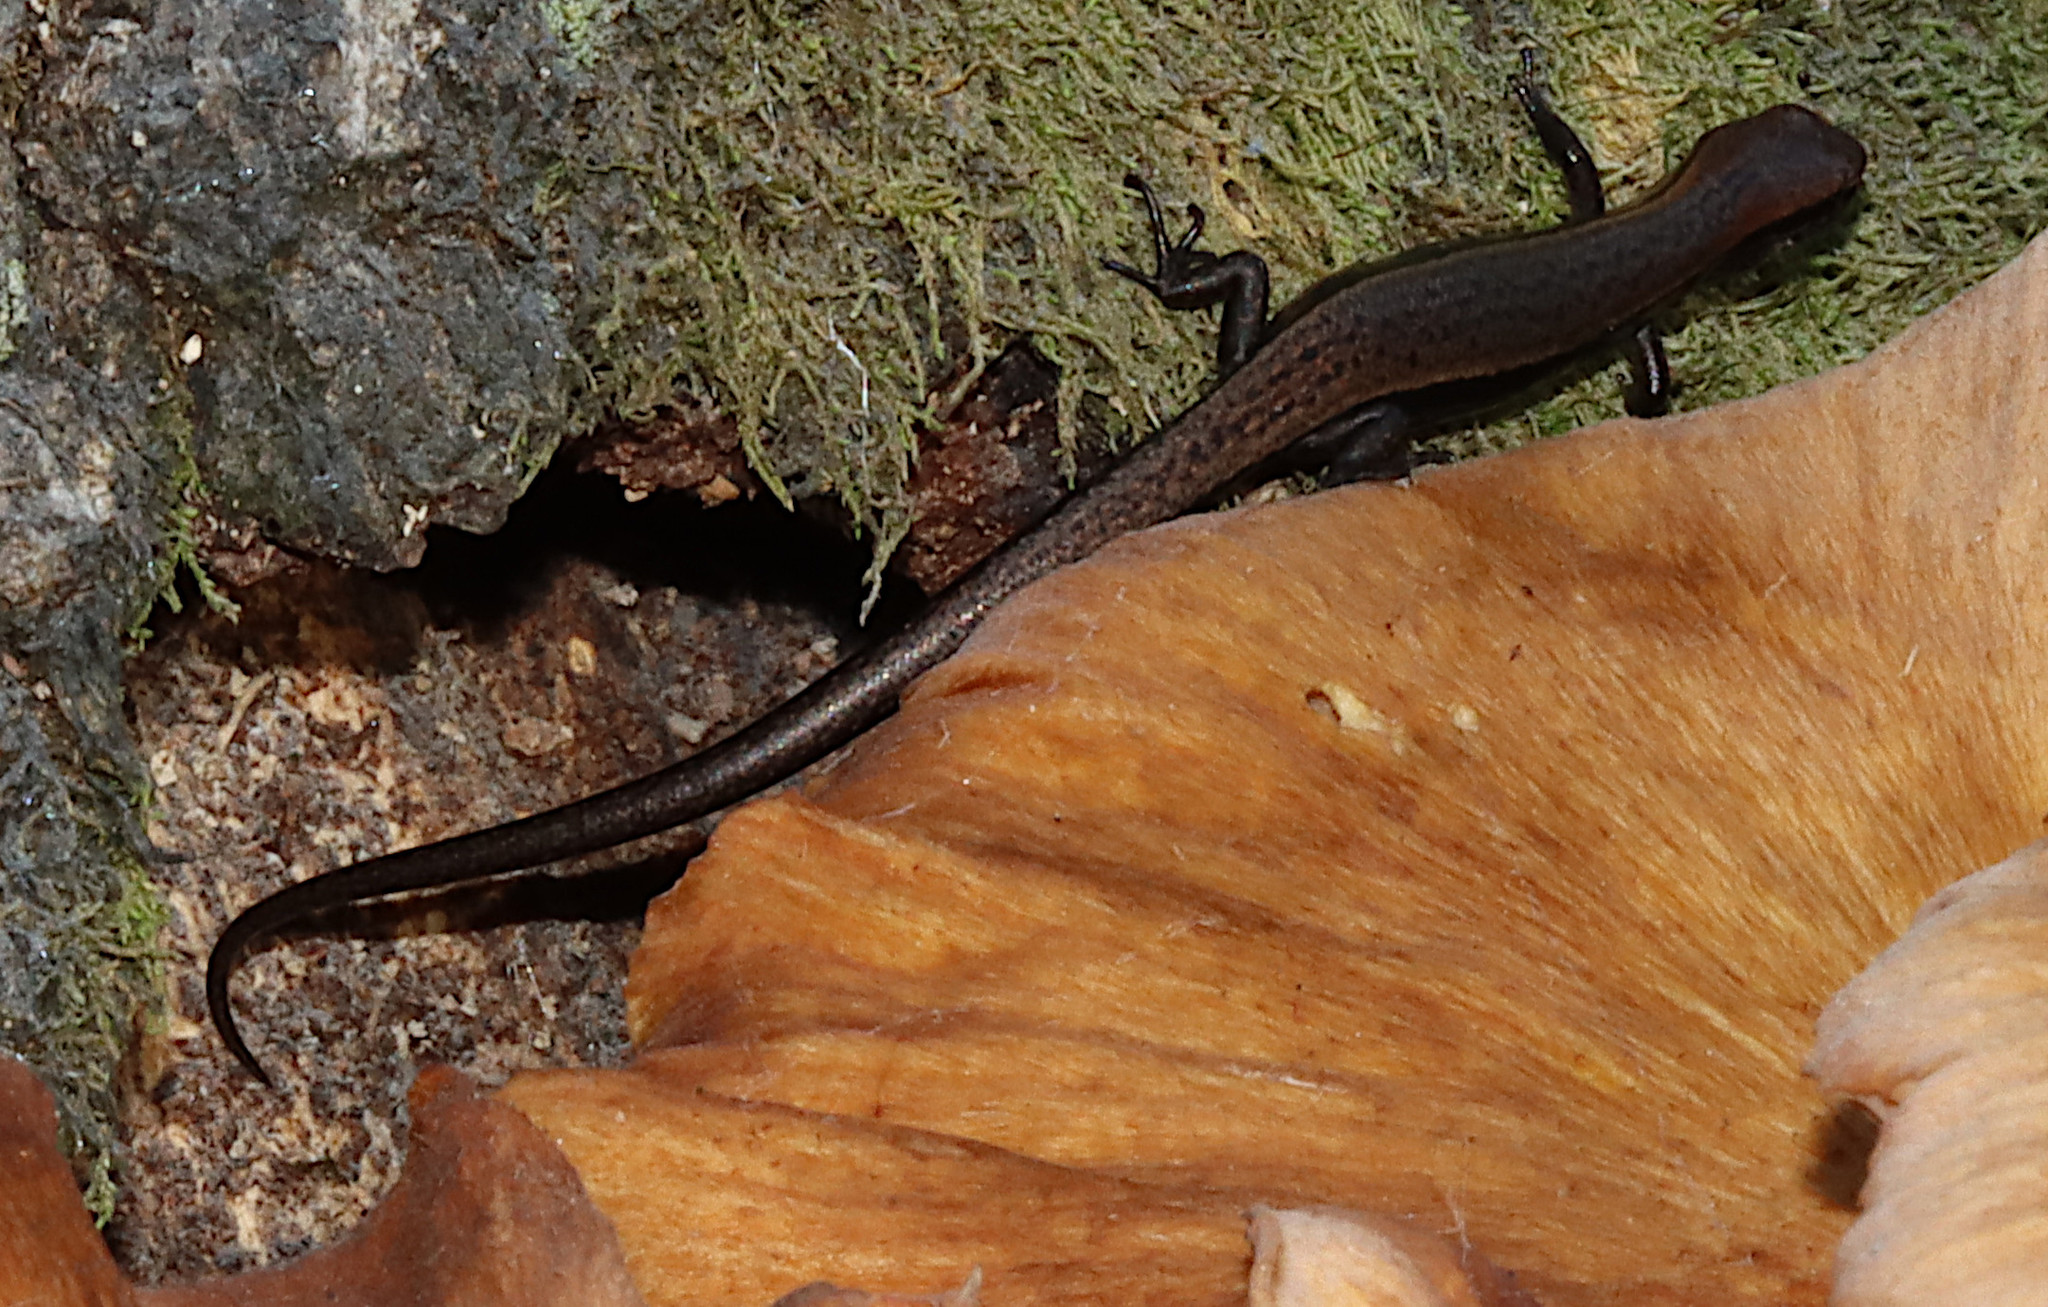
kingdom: Animalia
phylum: Chordata
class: Squamata
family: Scincidae
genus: Scincella
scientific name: Scincella lateralis
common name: Ground skink
